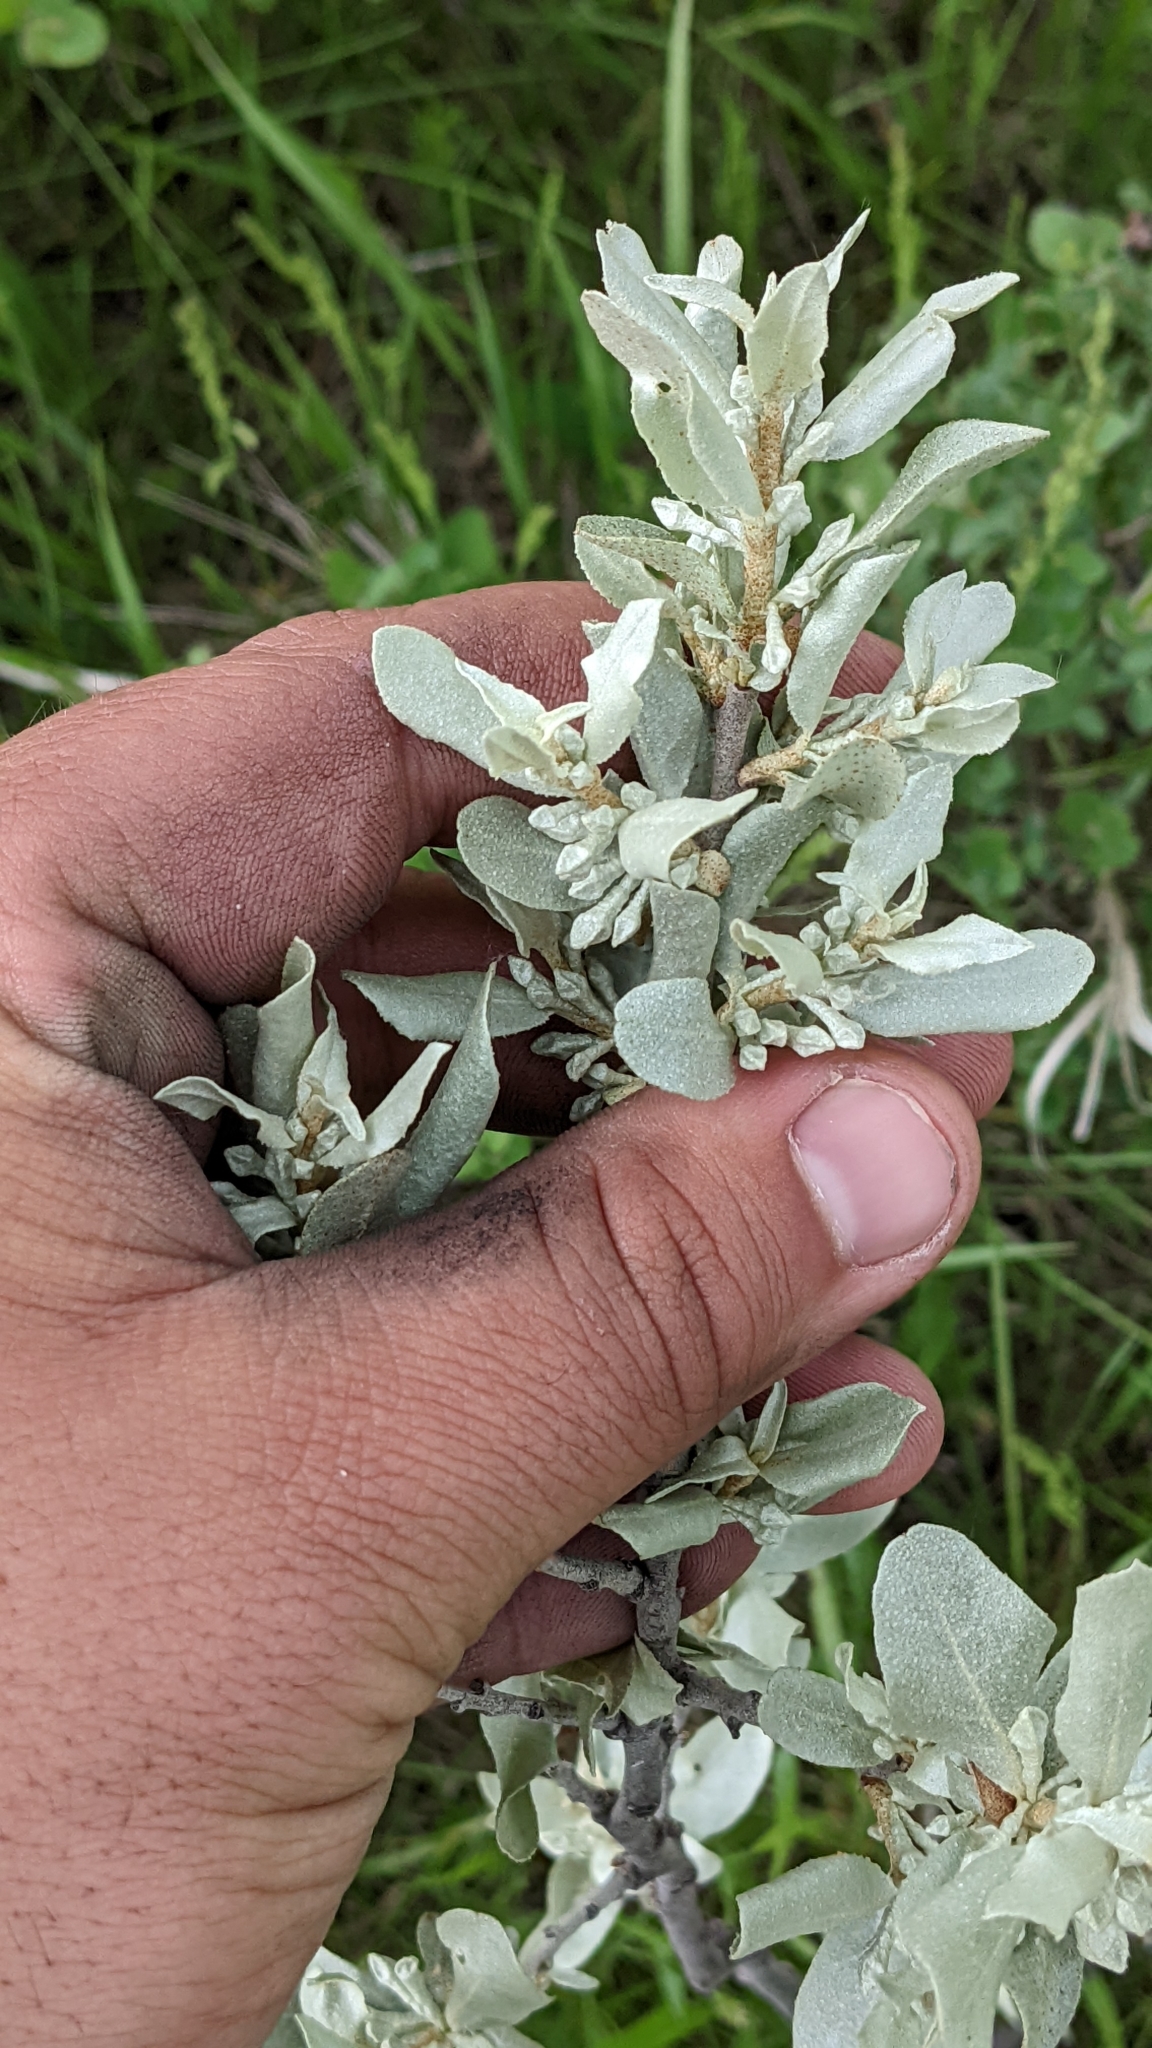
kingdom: Plantae
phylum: Tracheophyta
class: Magnoliopsida
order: Rosales
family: Elaeagnaceae
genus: Elaeagnus
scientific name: Elaeagnus commutata
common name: Silverberry
